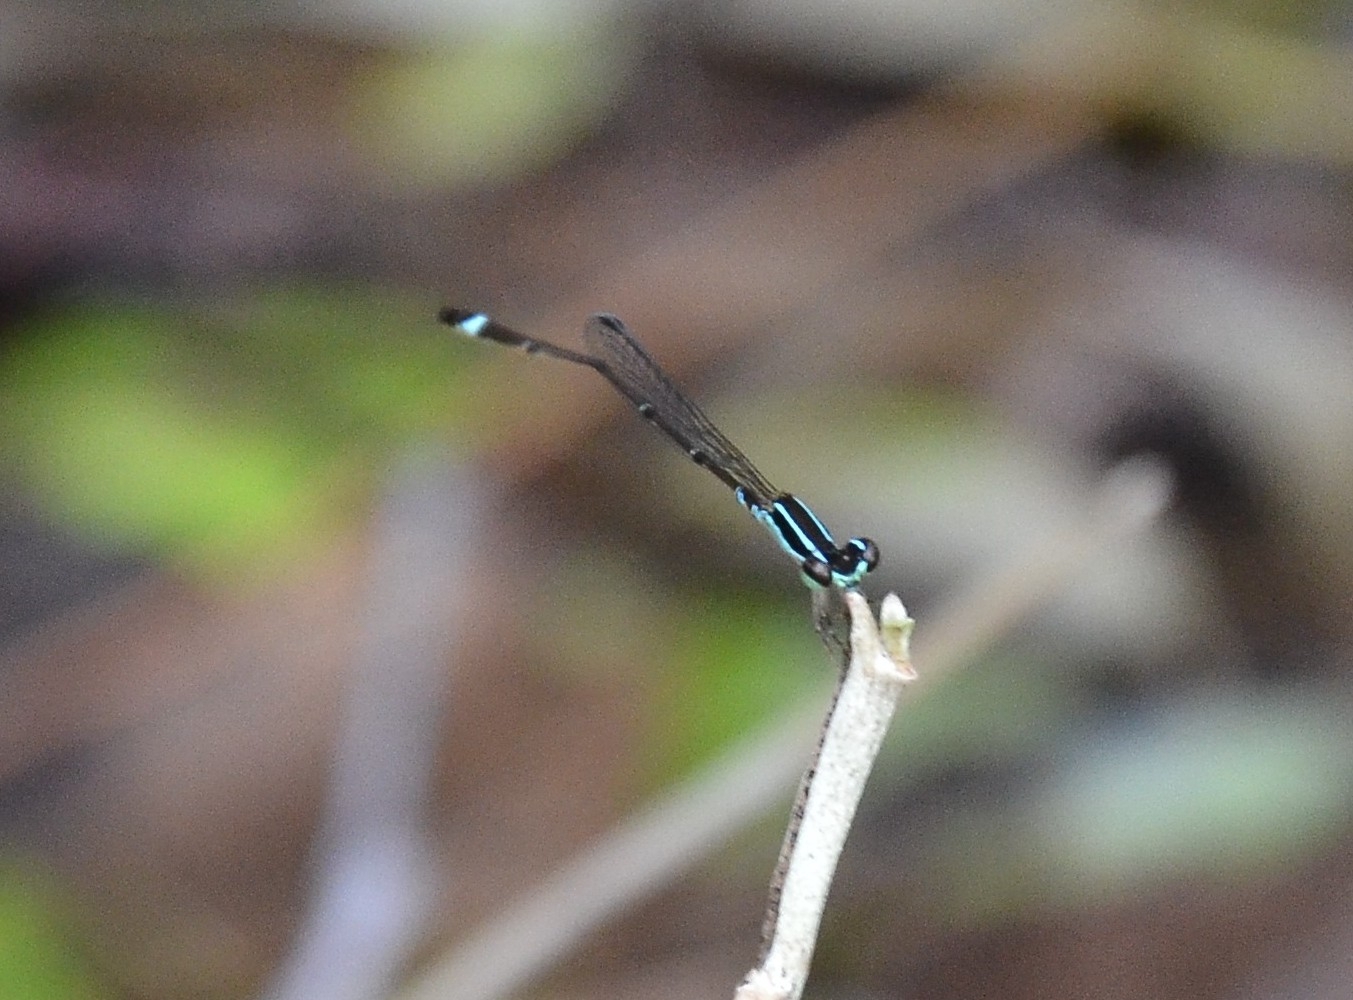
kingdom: Animalia
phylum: Arthropoda
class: Insecta
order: Odonata
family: Coenagrionidae
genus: Mortonagrion
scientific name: Mortonagrion varralli
